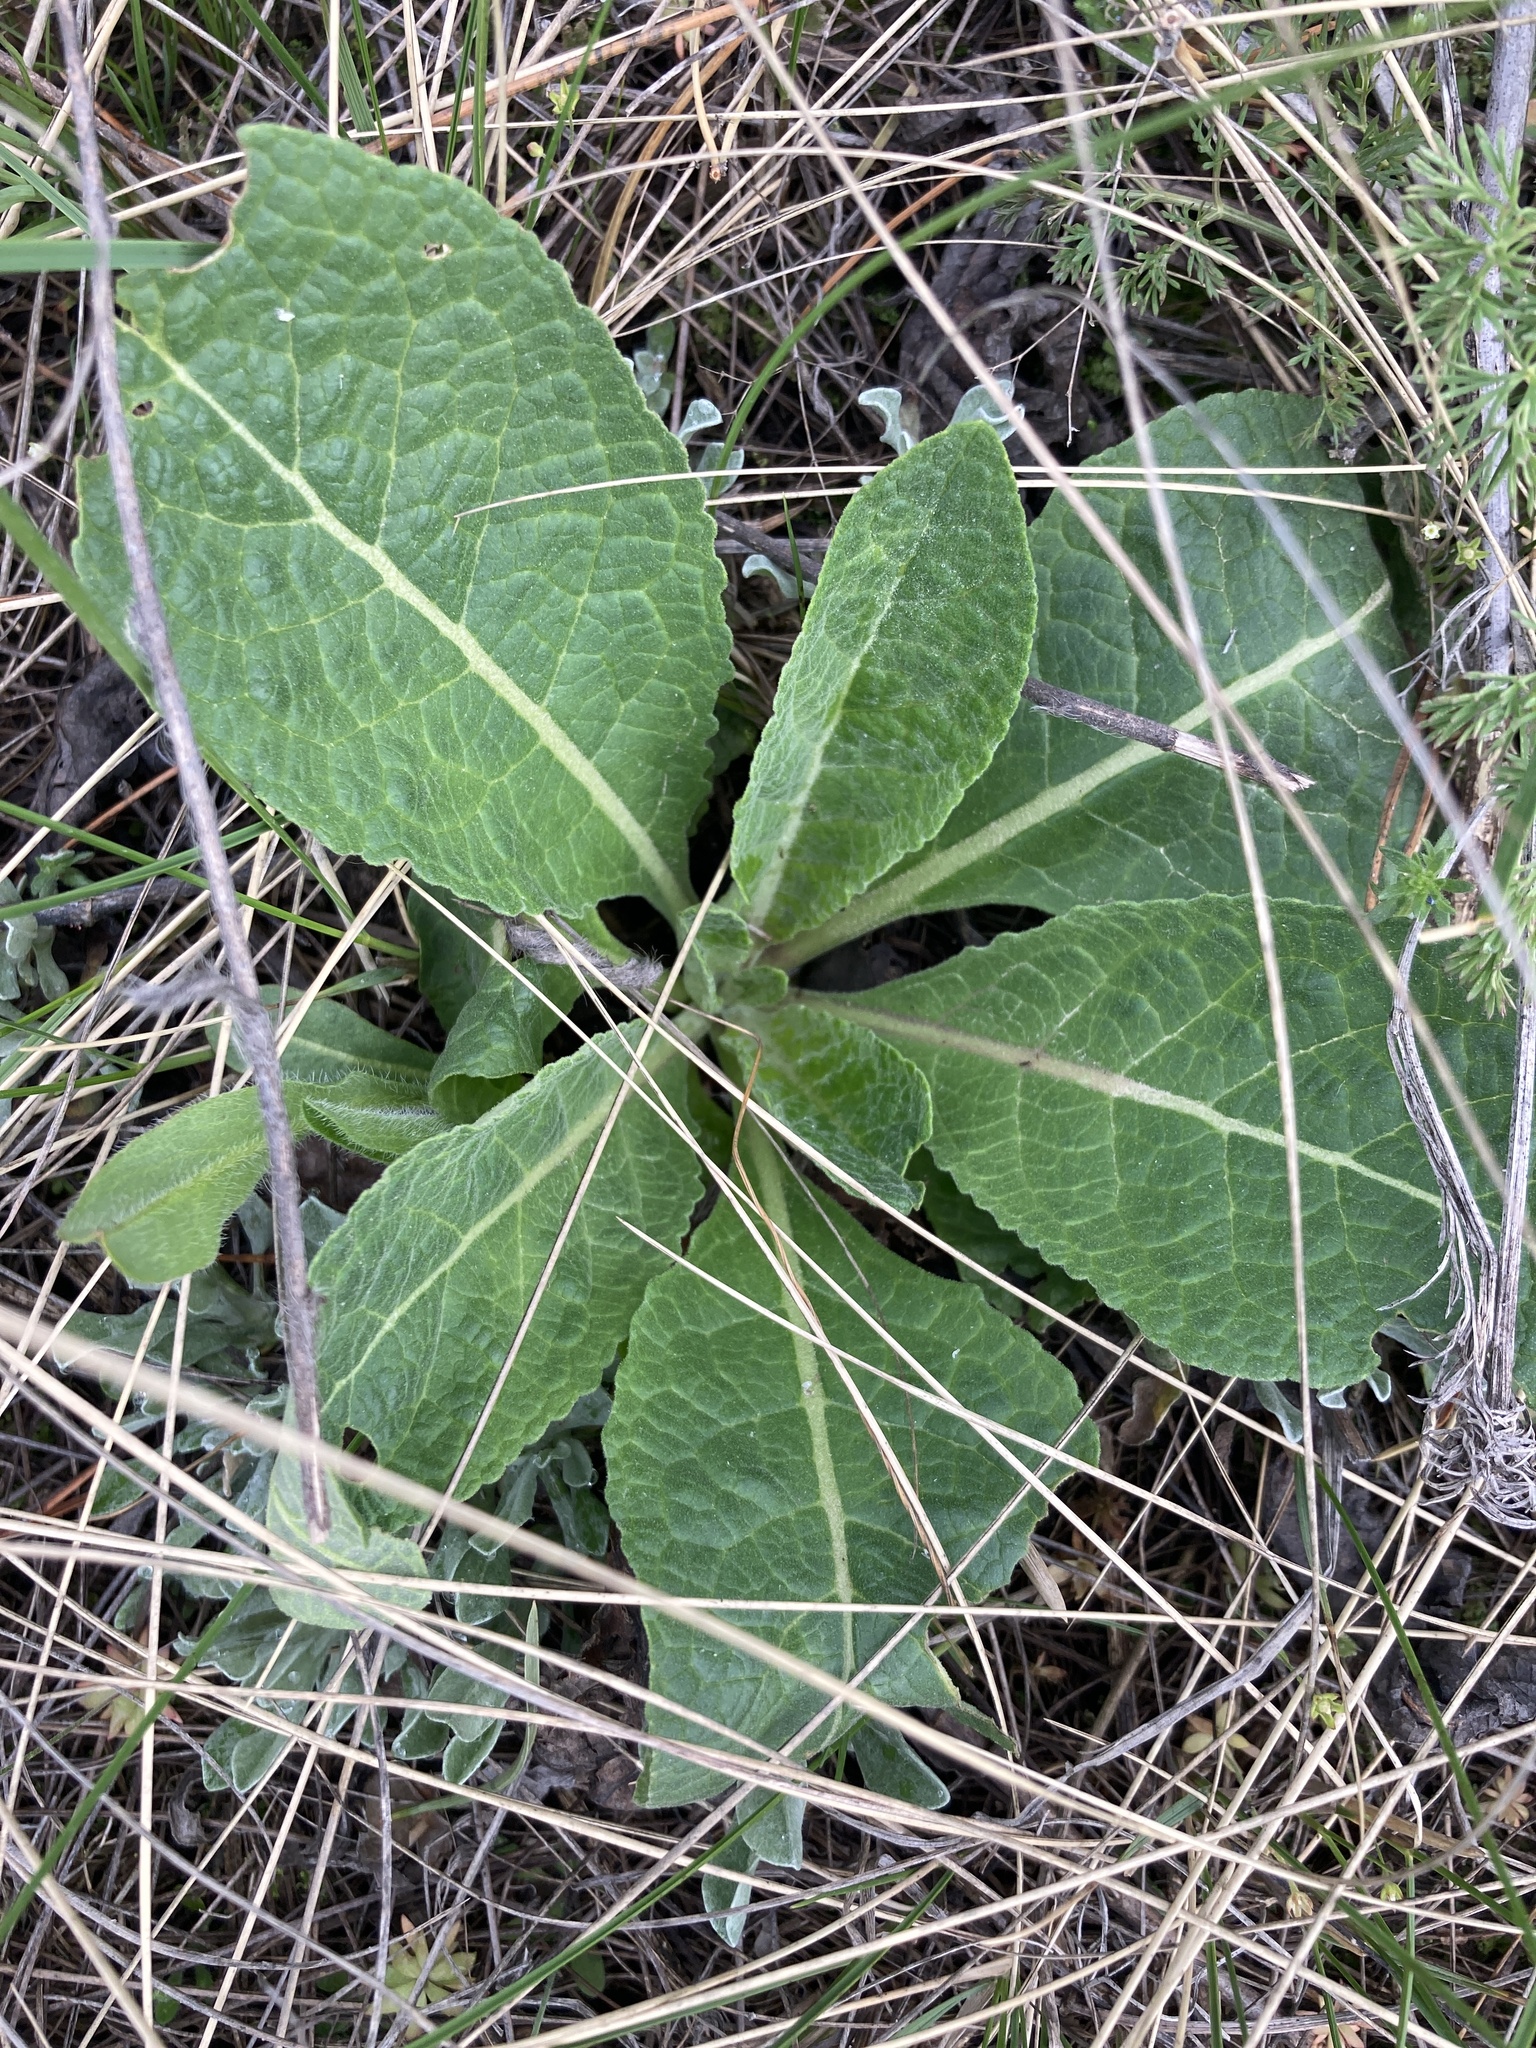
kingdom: Plantae
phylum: Tracheophyta
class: Magnoliopsida
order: Lamiales
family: Scrophulariaceae
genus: Verbascum
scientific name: Verbascum lychnitis
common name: White mullein
